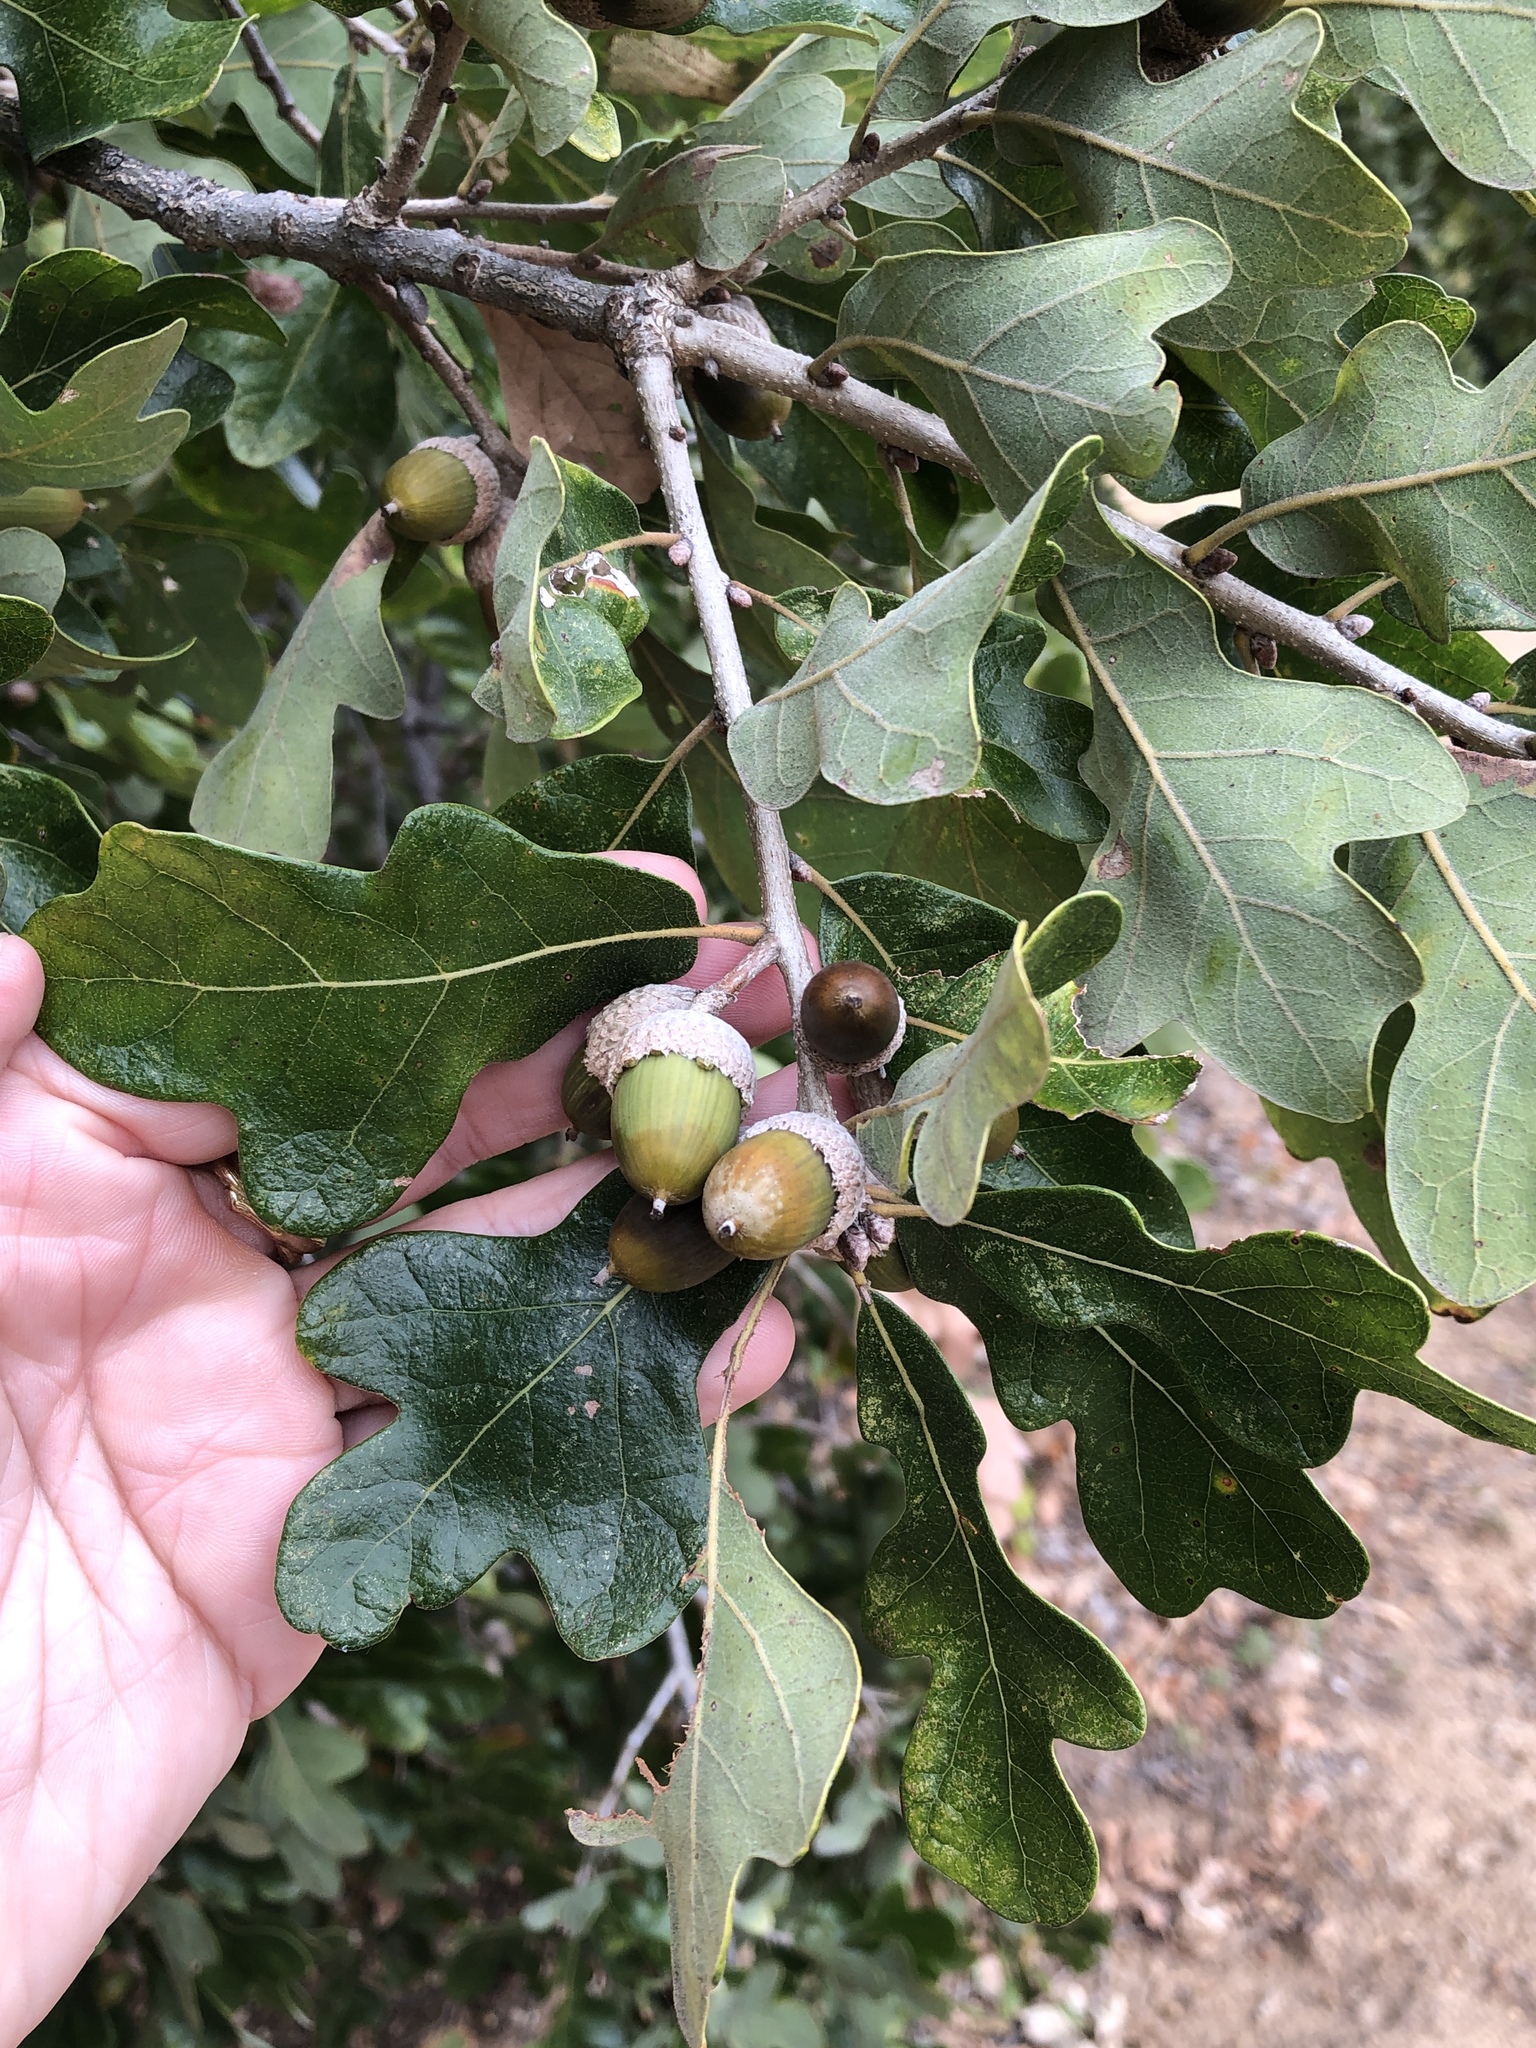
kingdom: Plantae
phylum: Tracheophyta
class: Magnoliopsida
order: Fagales
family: Fagaceae
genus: Quercus
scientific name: Quercus stellata
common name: Post oak
